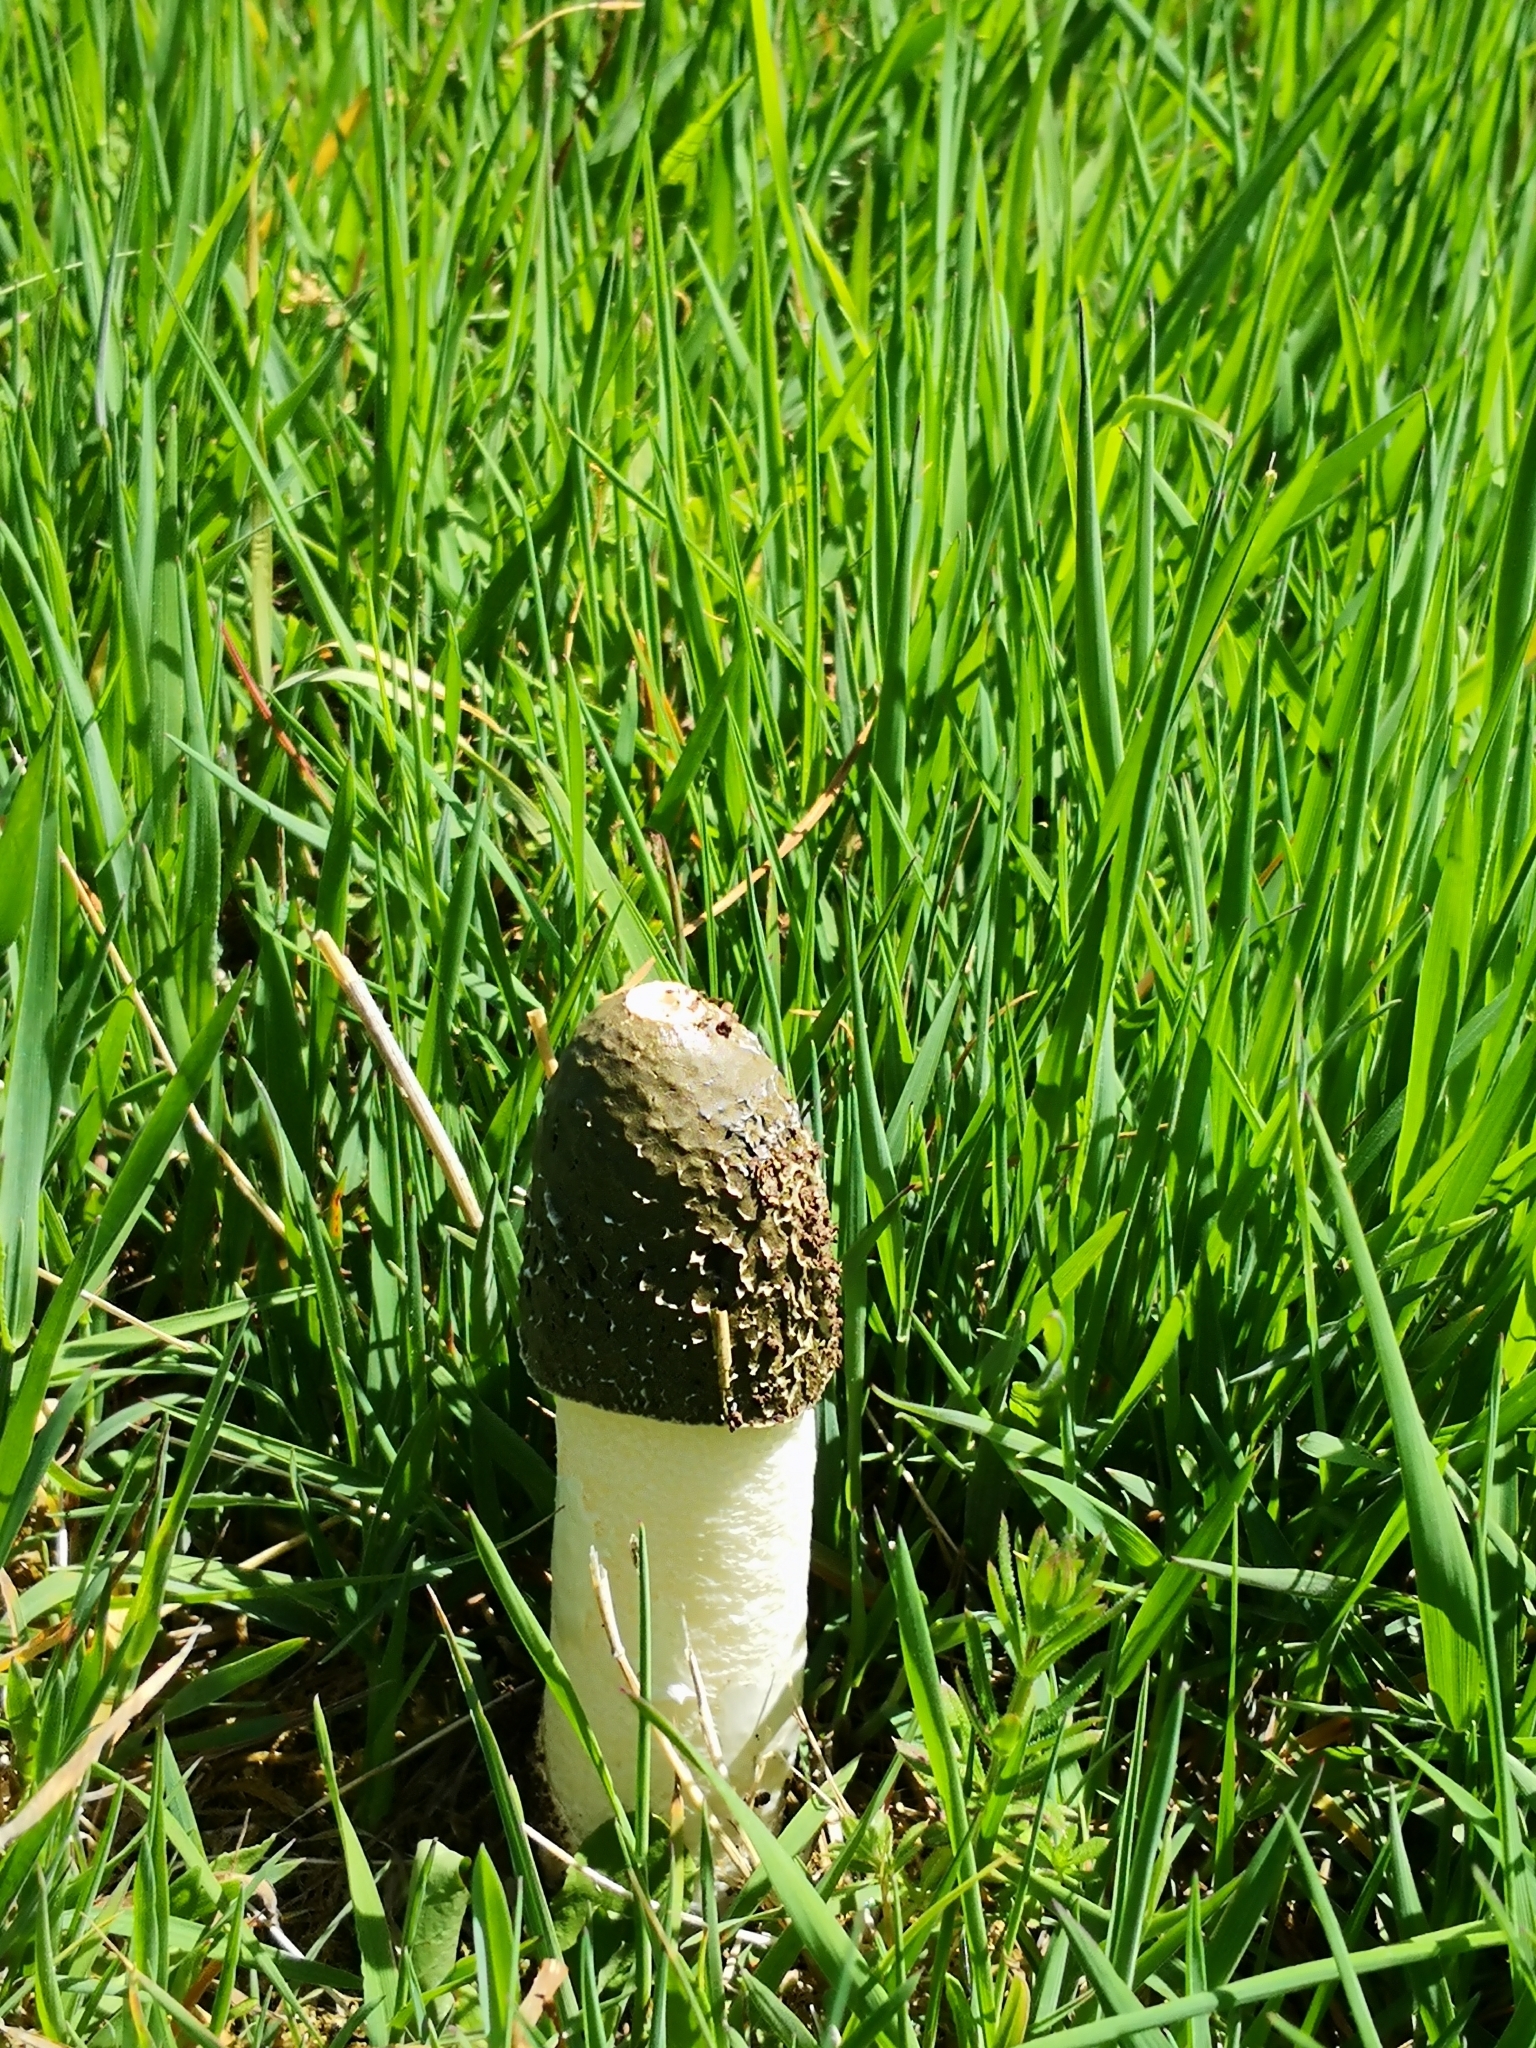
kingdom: Fungi
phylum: Basidiomycota
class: Agaricomycetes
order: Phallales
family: Phallaceae
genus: Phallus
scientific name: Phallus impudicus
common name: Common stinkhorn
